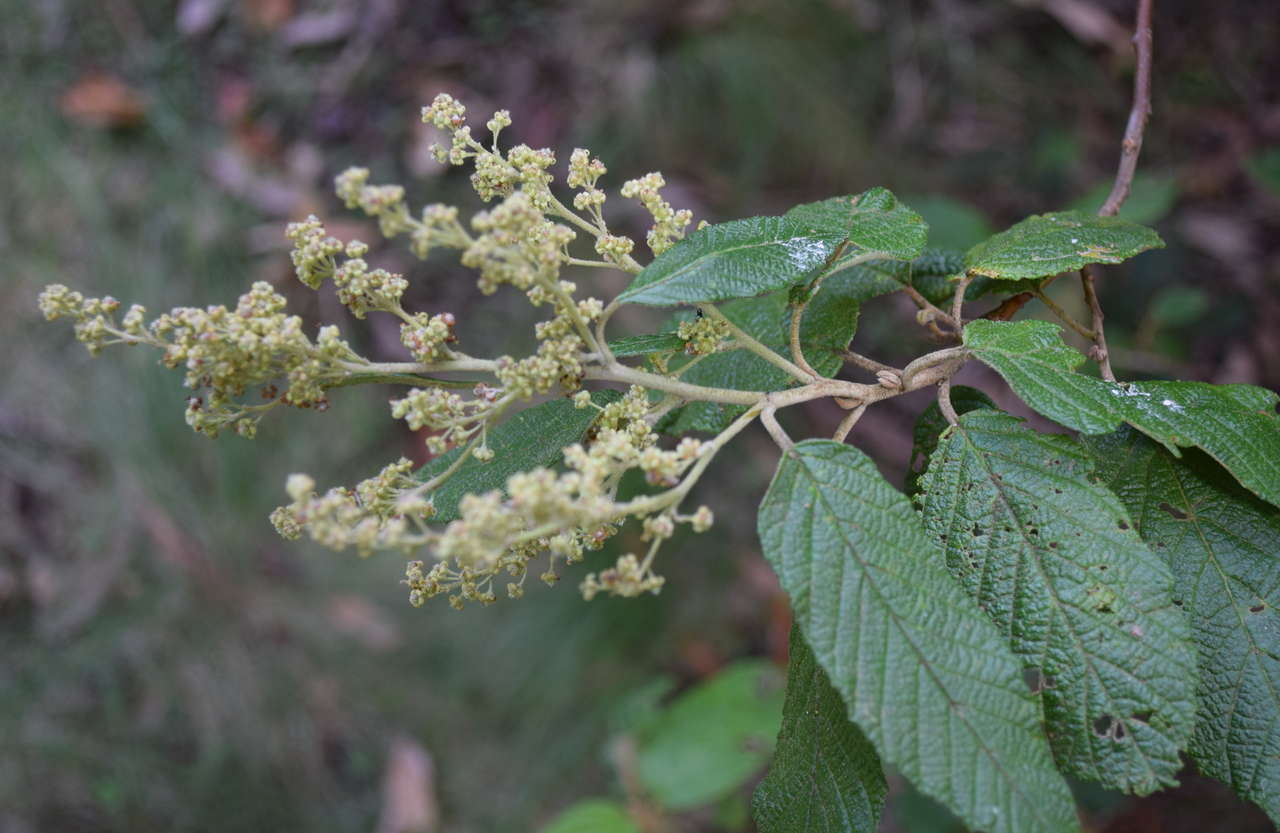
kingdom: Plantae
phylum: Tracheophyta
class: Magnoliopsida
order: Rosales
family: Rhamnaceae
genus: Pomaderris
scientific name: Pomaderris aspera
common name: Hazel pomaderris
